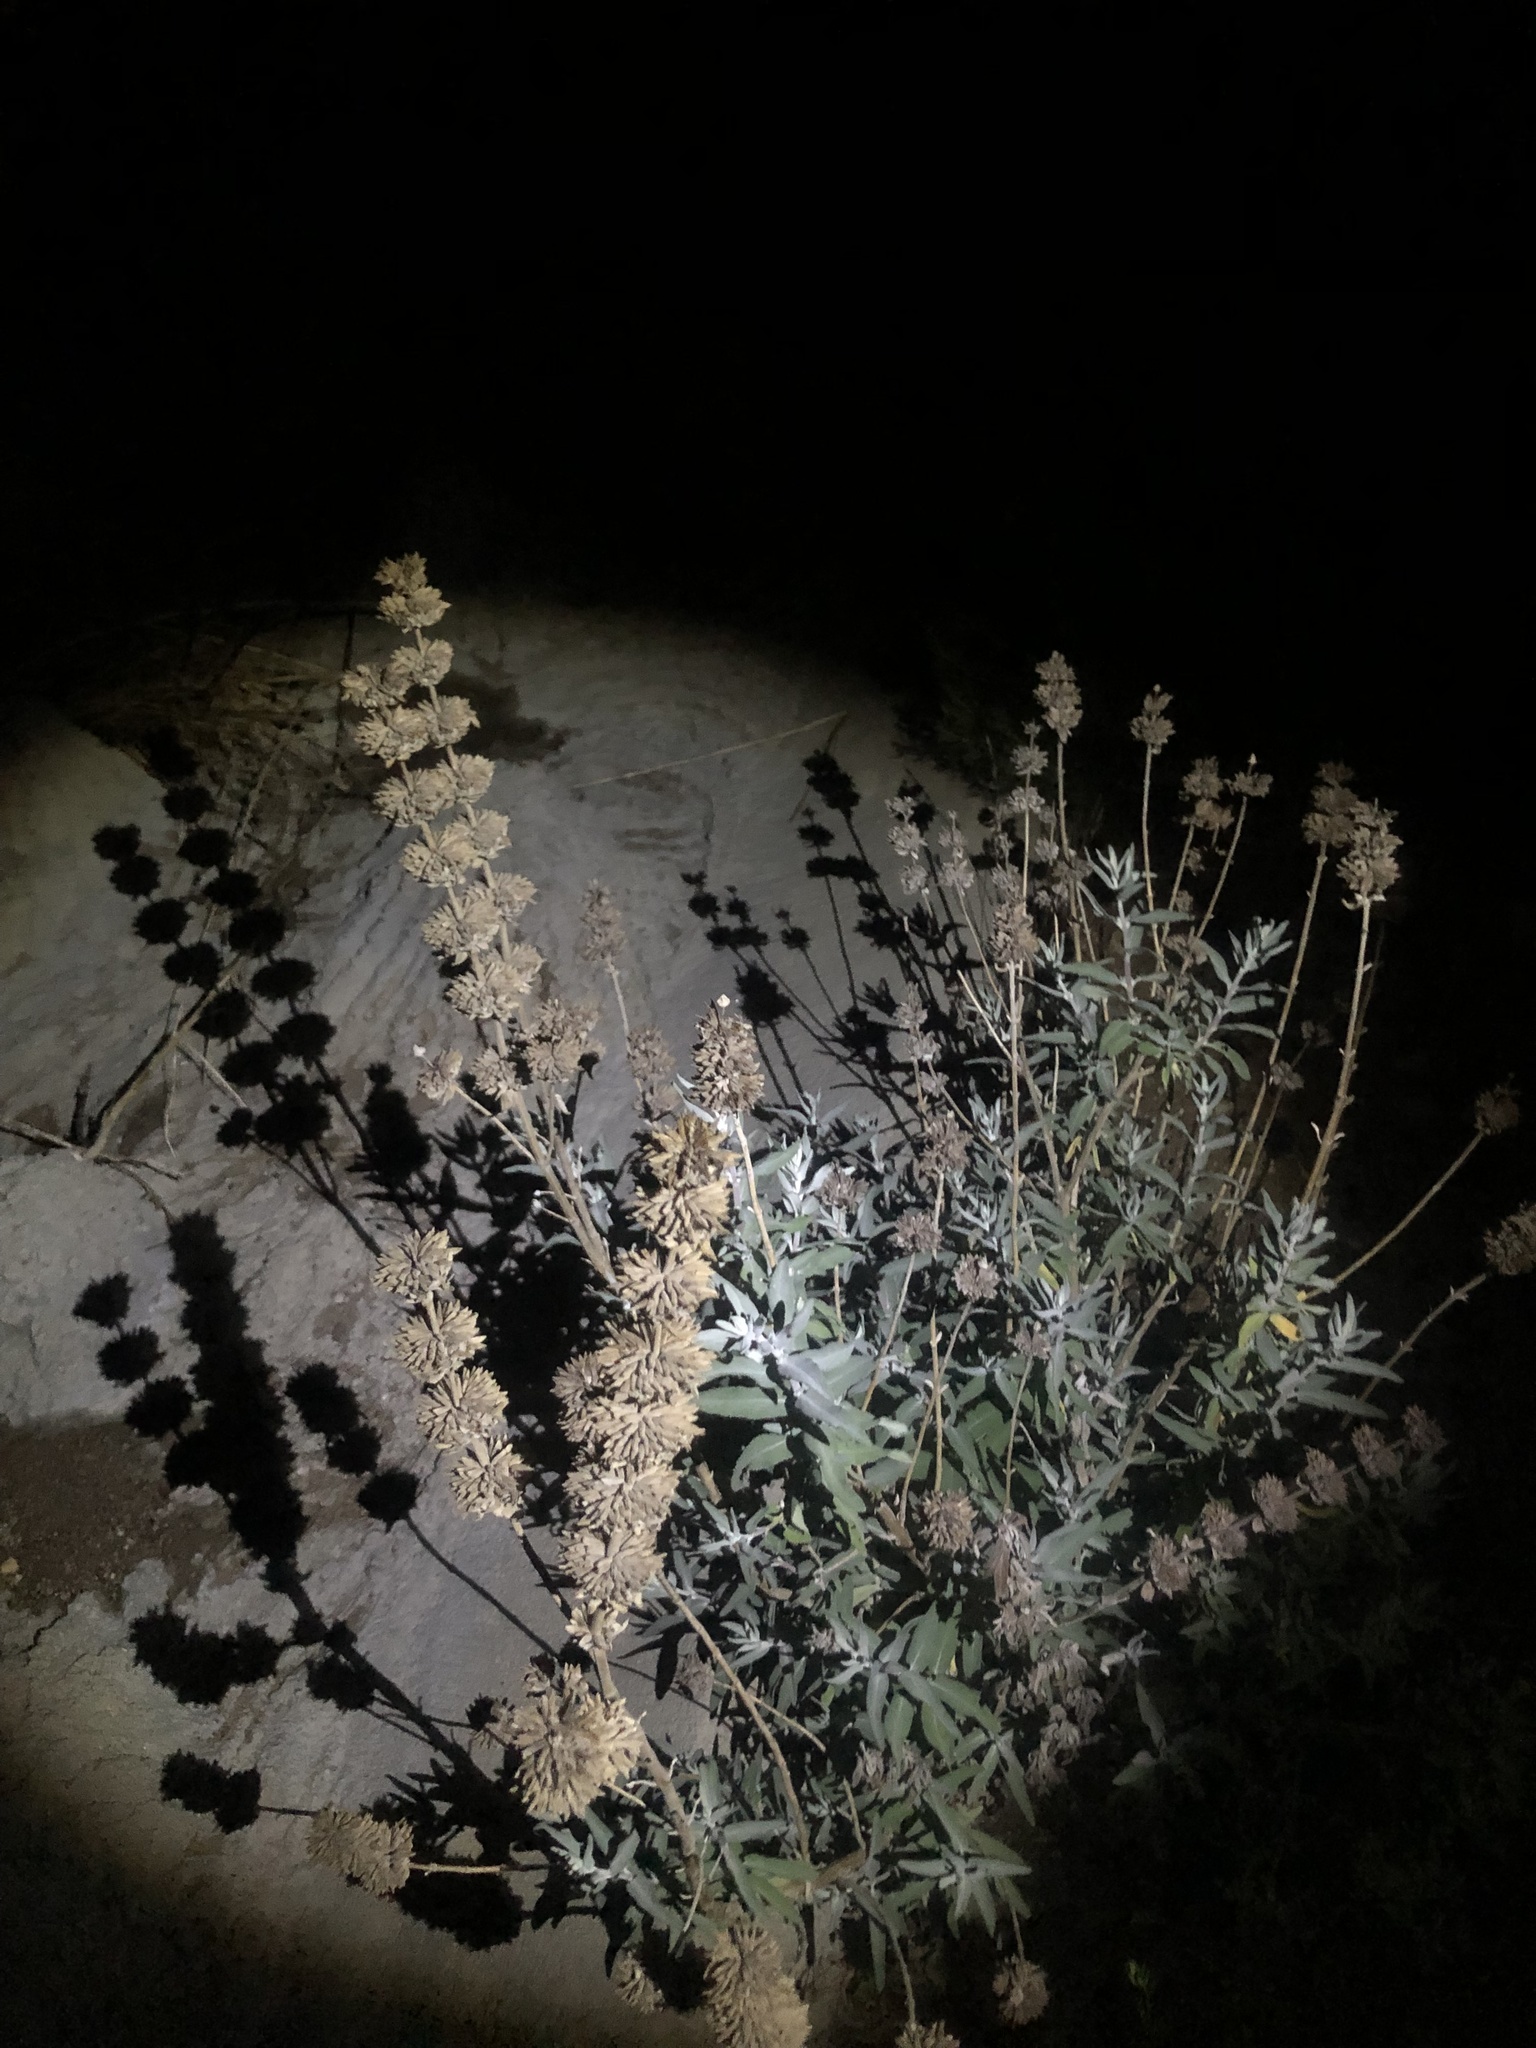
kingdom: Plantae
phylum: Tracheophyta
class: Magnoliopsida
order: Lamiales
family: Lamiaceae
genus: Salvia
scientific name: Salvia leucophylla
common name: Purple sage
